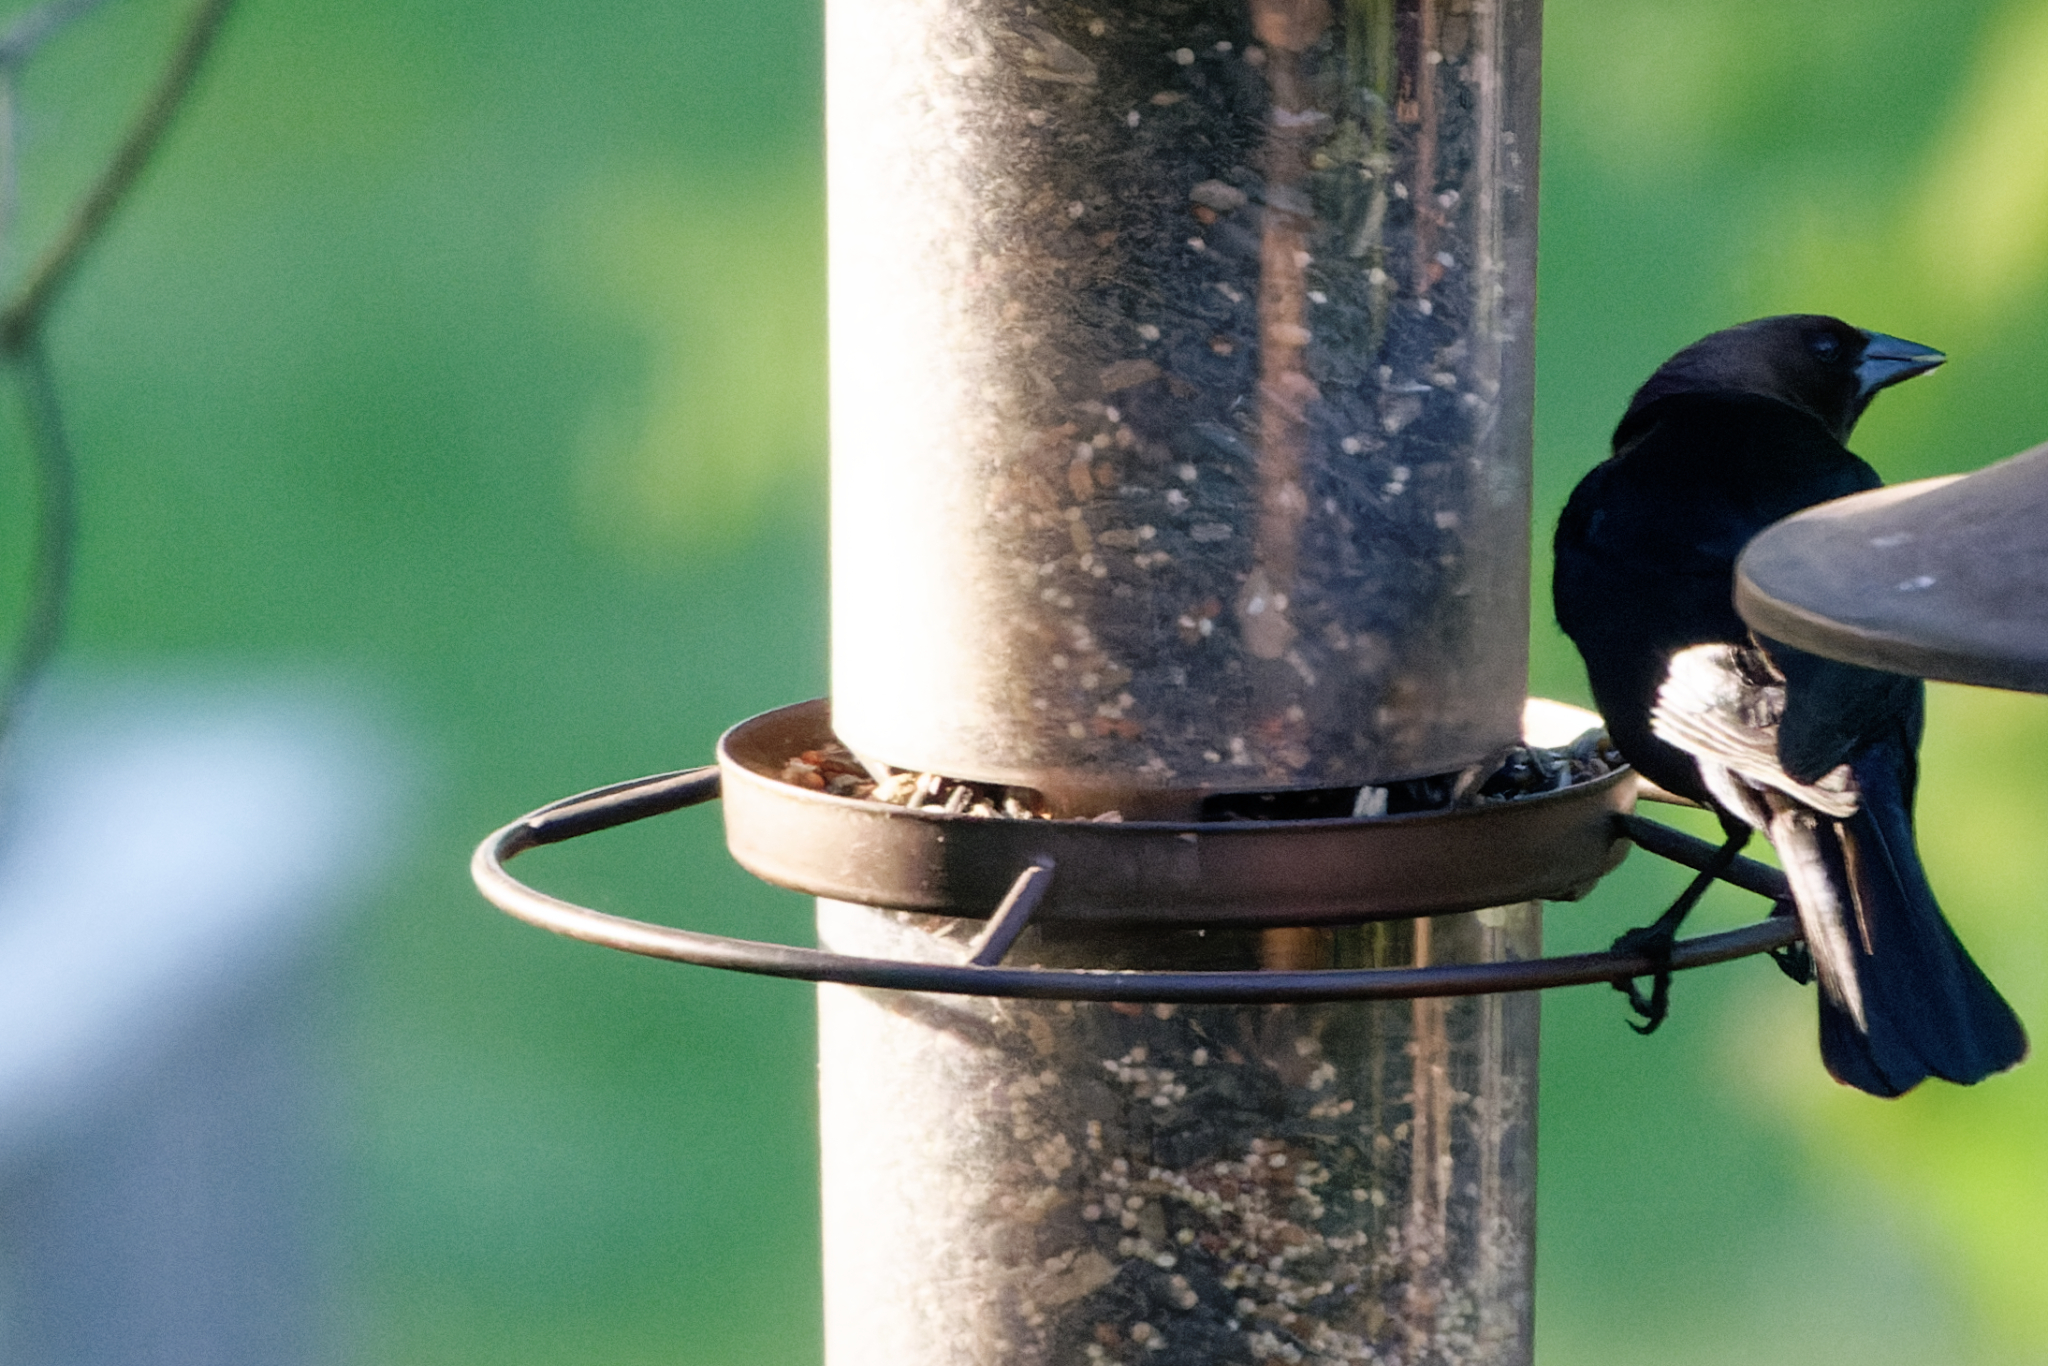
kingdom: Animalia
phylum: Chordata
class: Aves
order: Passeriformes
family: Icteridae
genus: Molothrus
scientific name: Molothrus ater
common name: Brown-headed cowbird
